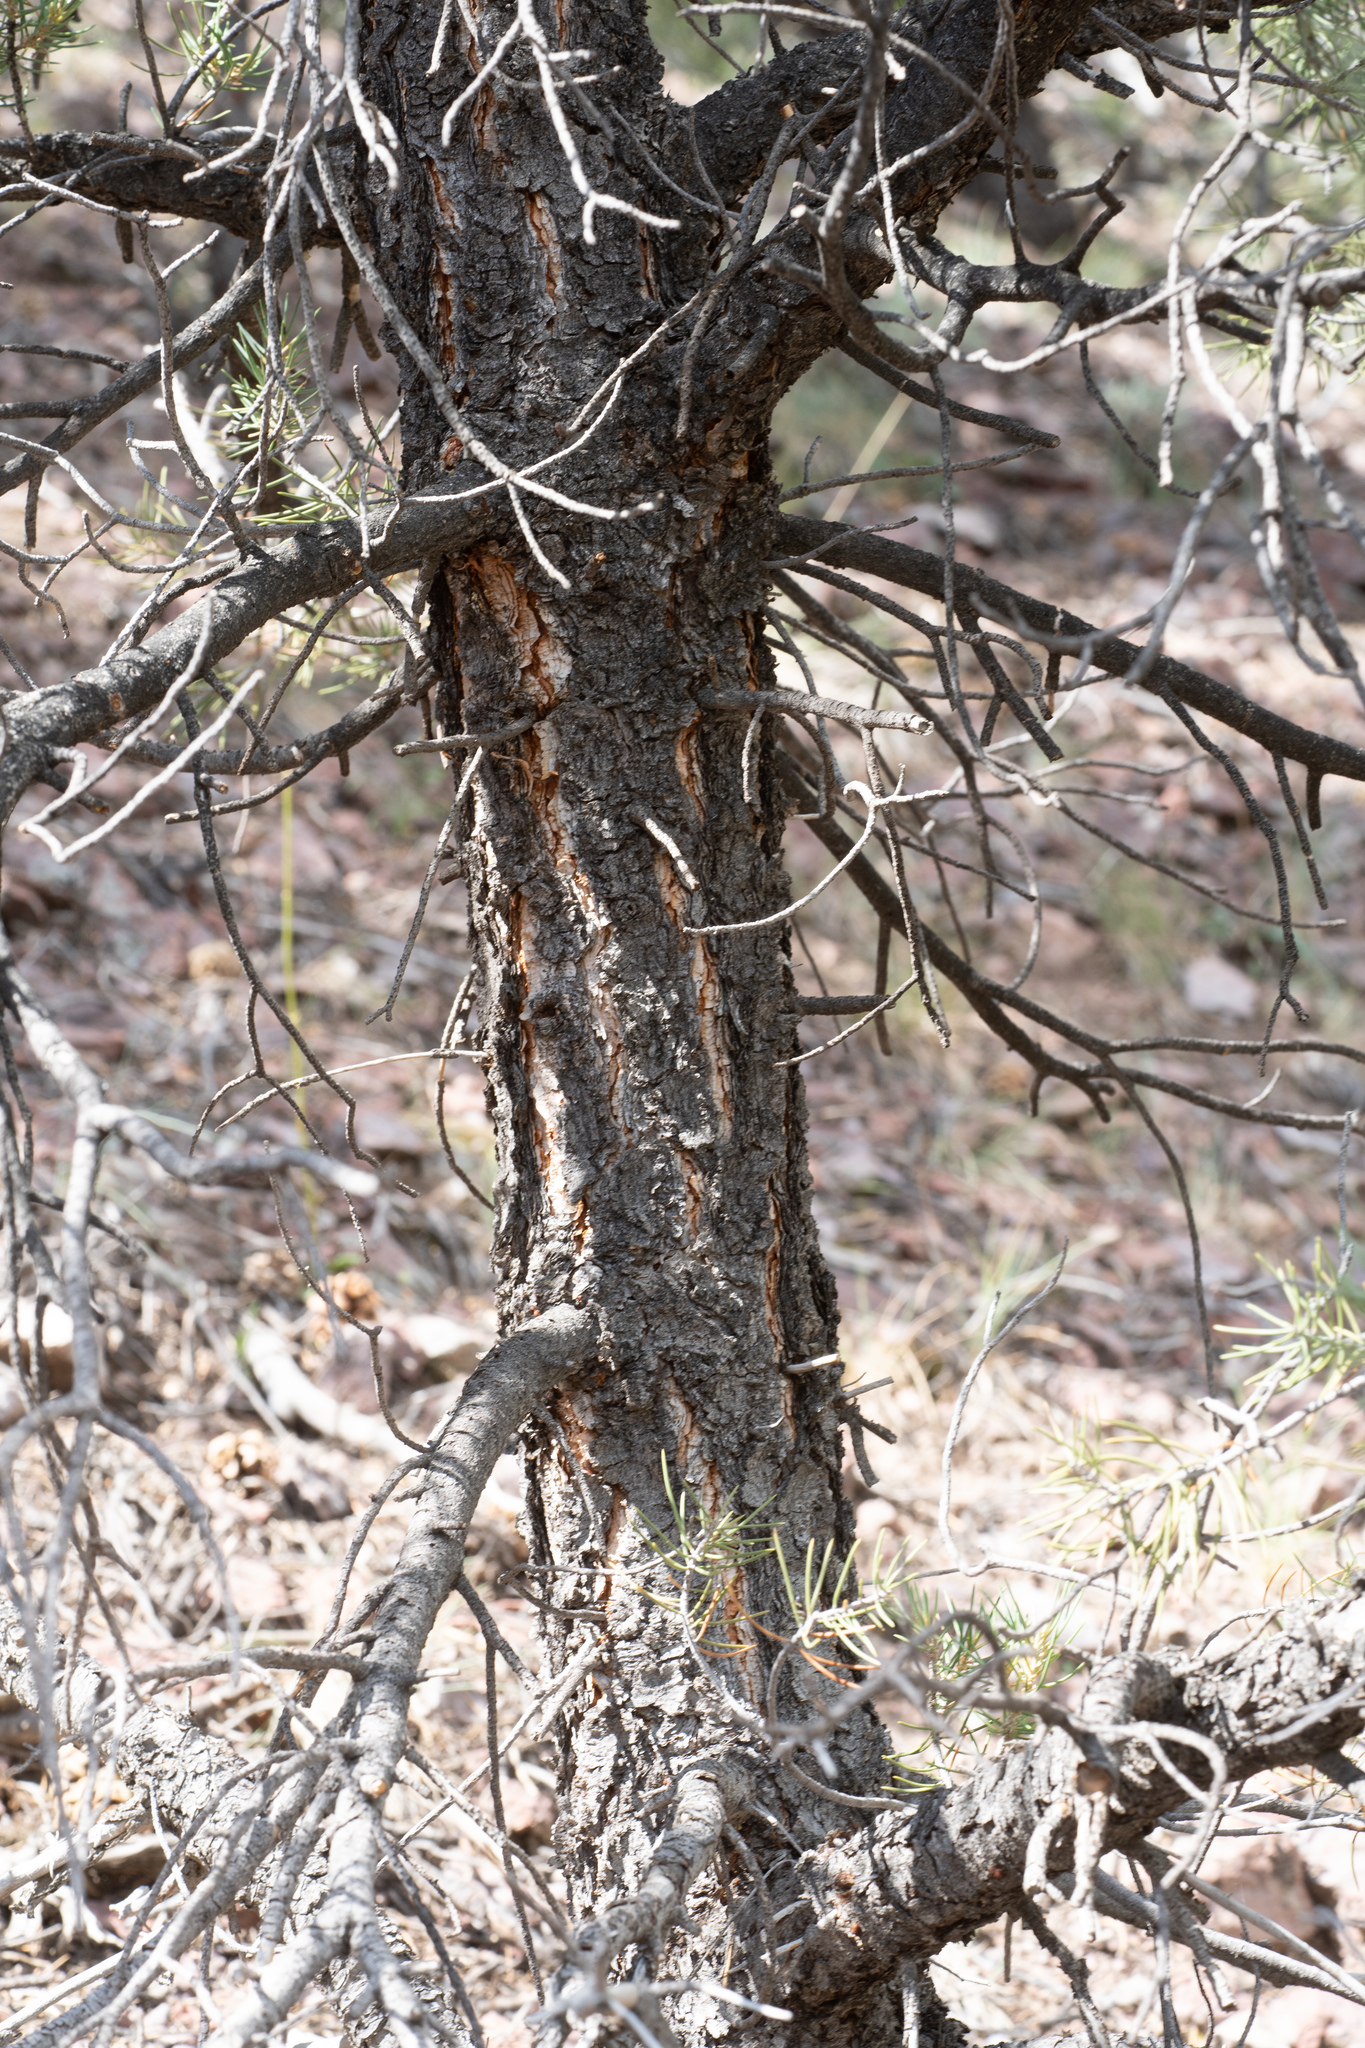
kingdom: Plantae
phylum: Tracheophyta
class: Pinopsida
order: Pinales
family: Pinaceae
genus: Pinus
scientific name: Pinus monophylla
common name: One-leaved nut pine
